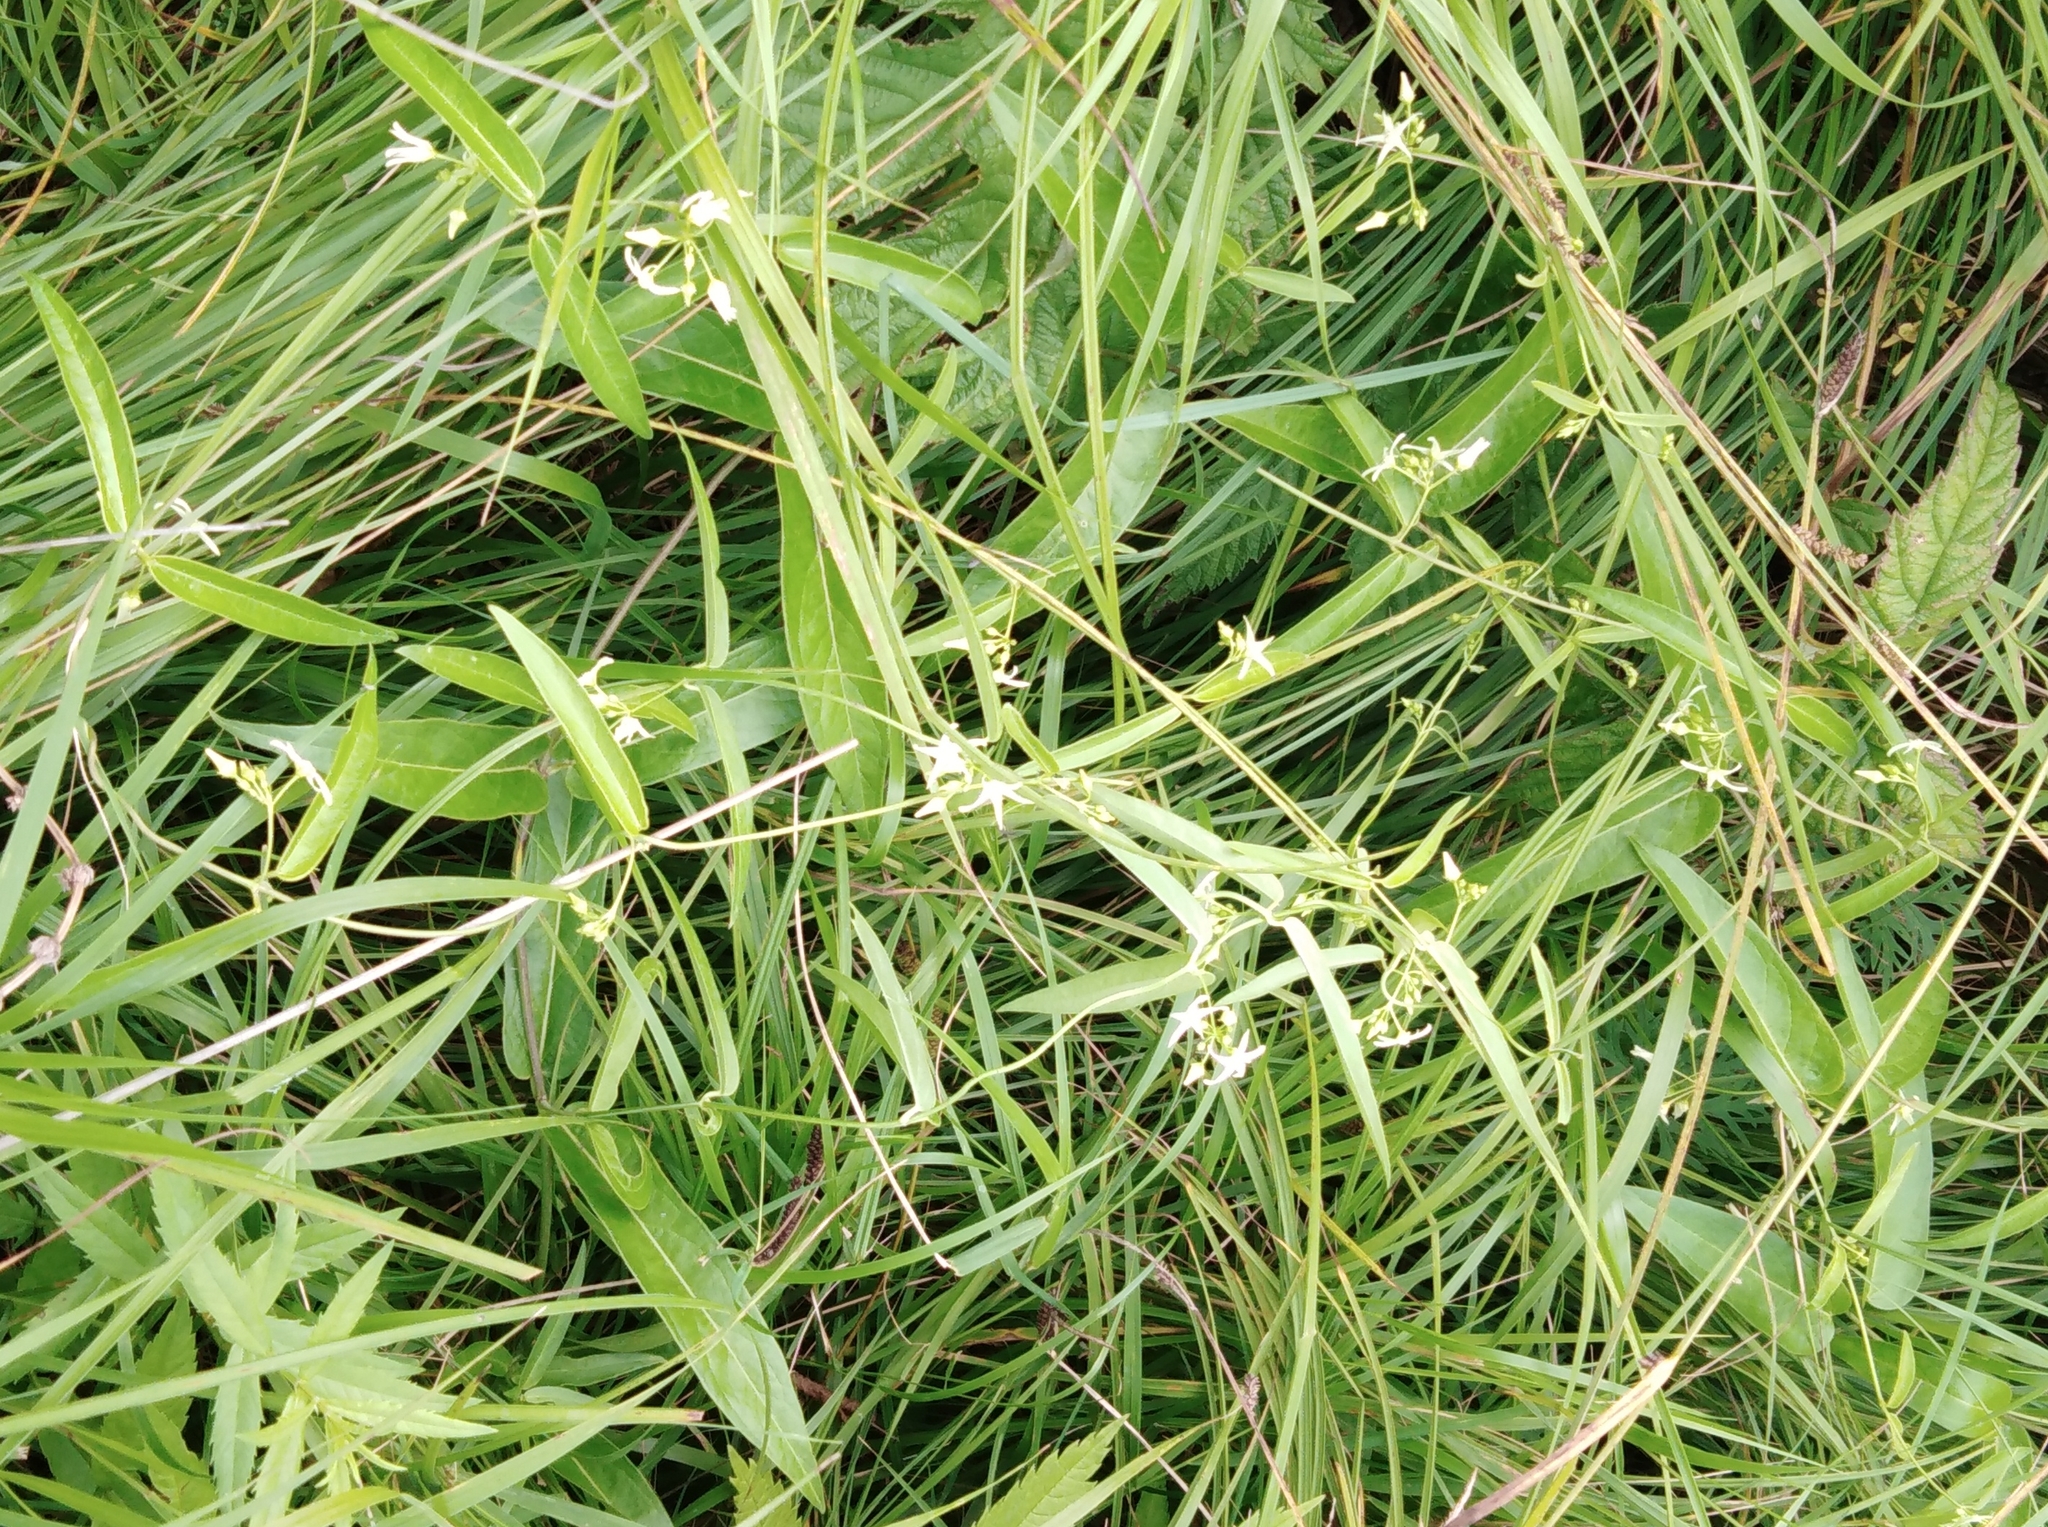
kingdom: Plantae
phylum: Tracheophyta
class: Magnoliopsida
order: Gentianales
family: Apocynaceae
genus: Vincetoxicum
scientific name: Vincetoxicum volubile
